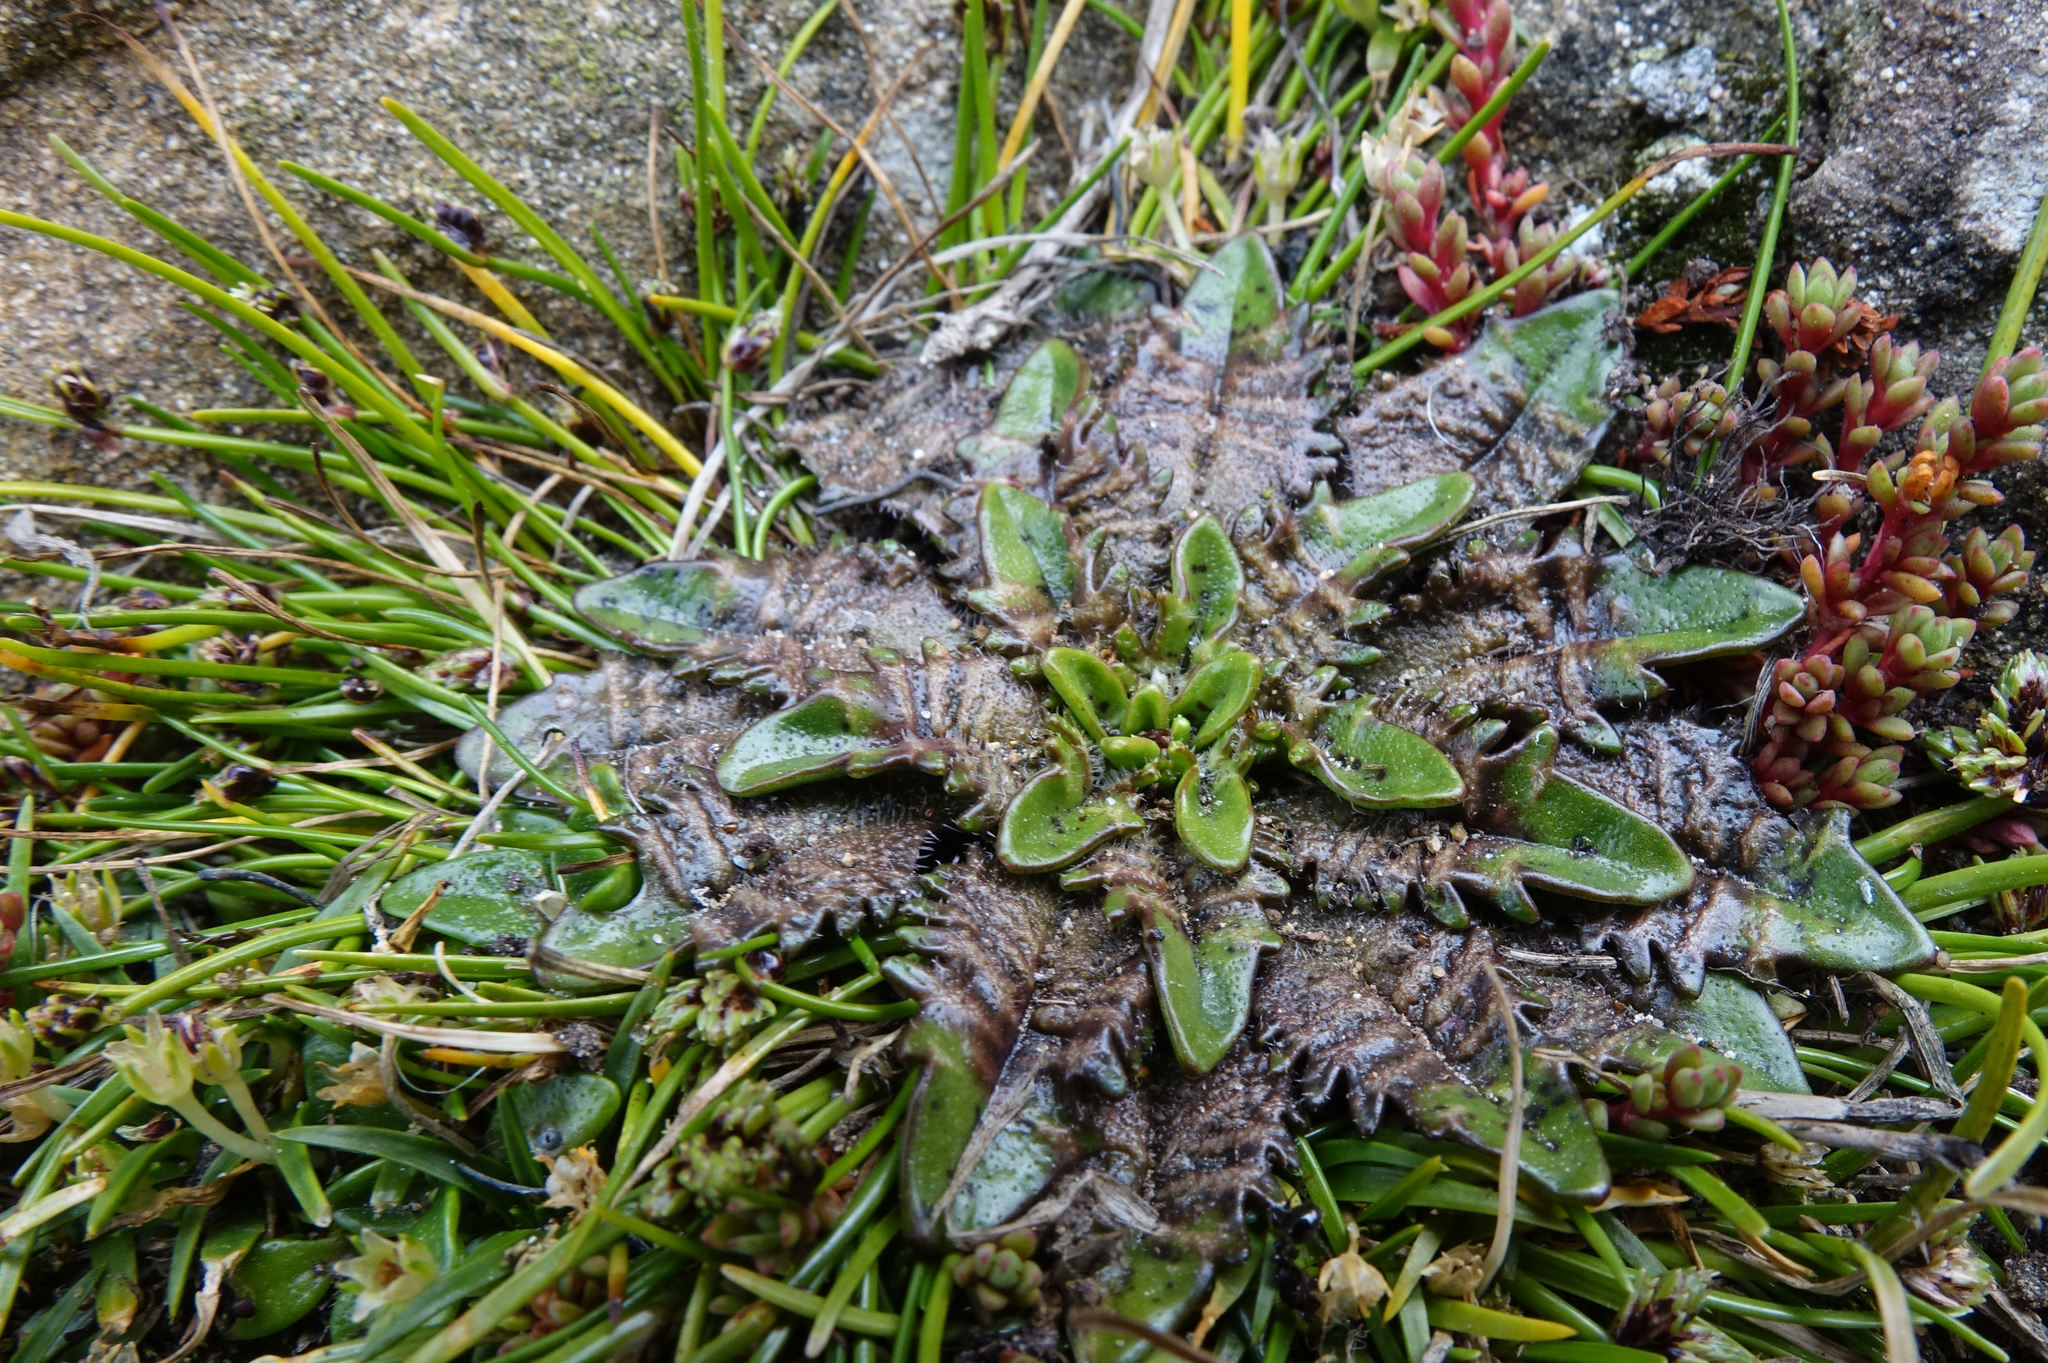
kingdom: Plantae
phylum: Tracheophyta
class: Magnoliopsida
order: Lamiales
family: Plantaginaceae
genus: Plantago
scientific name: Plantago triandra
